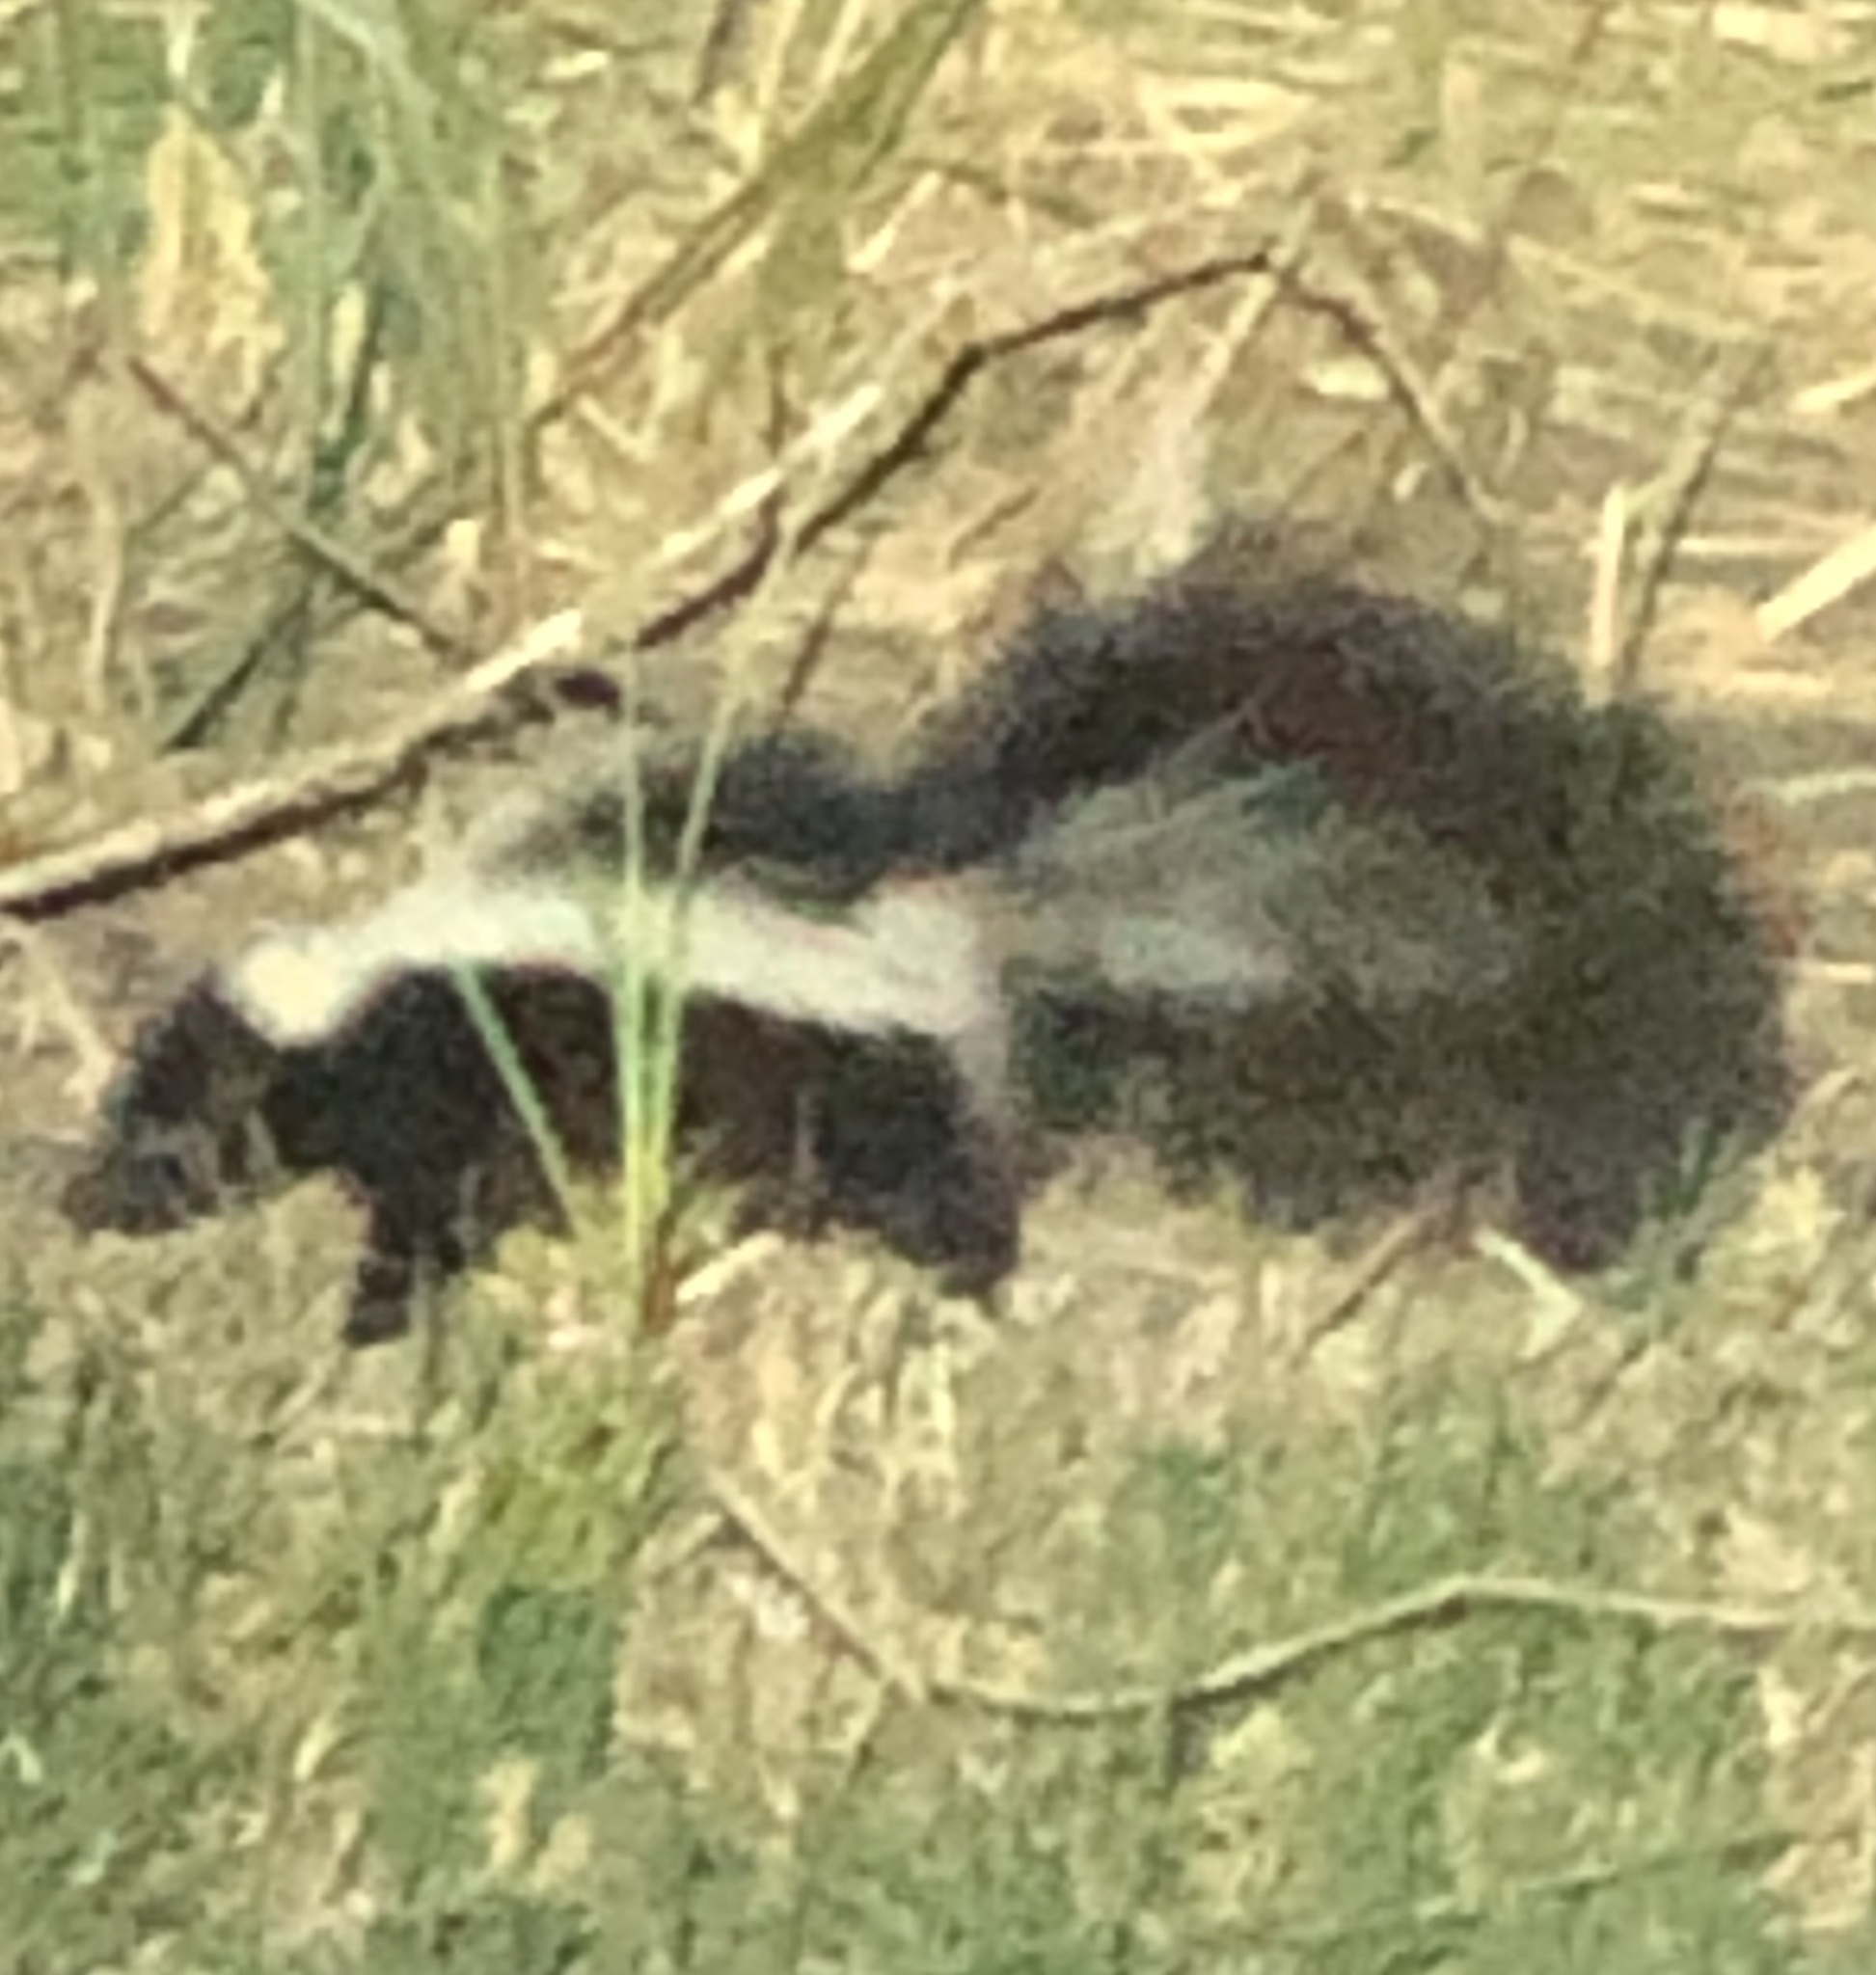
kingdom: Animalia
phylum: Chordata
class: Mammalia
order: Carnivora
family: Mephitidae
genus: Mephitis
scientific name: Mephitis mephitis
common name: Striped skunk
